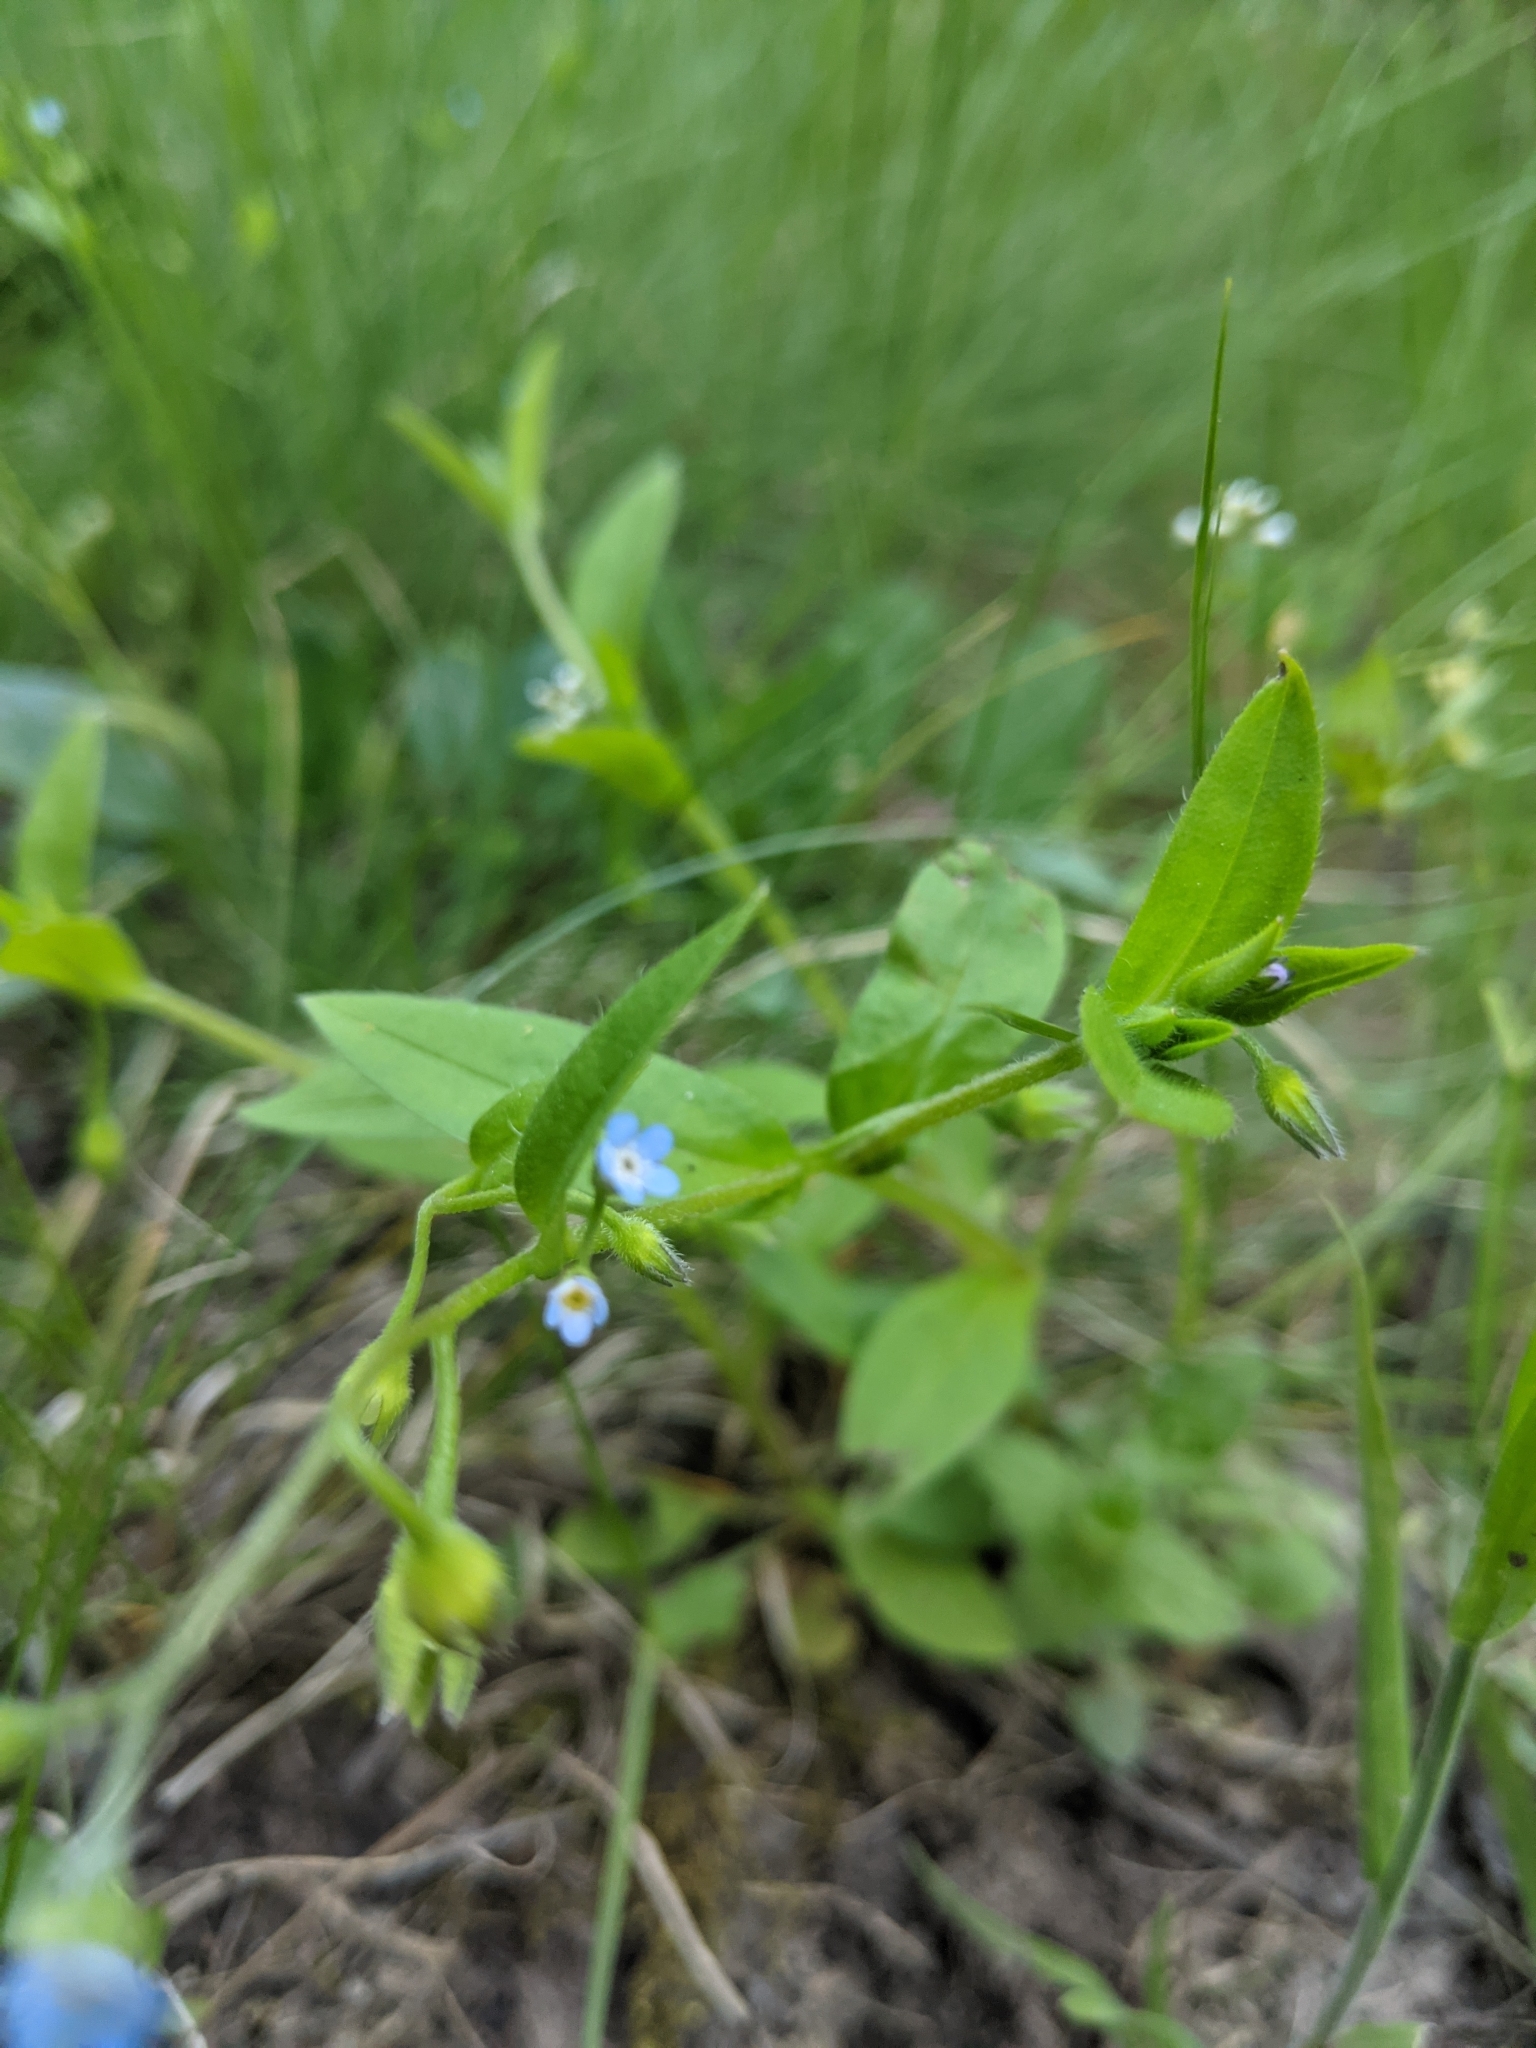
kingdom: Plantae
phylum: Tracheophyta
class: Magnoliopsida
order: Boraginales
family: Boraginaceae
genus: Myosotis
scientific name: Myosotis sparsiflora
